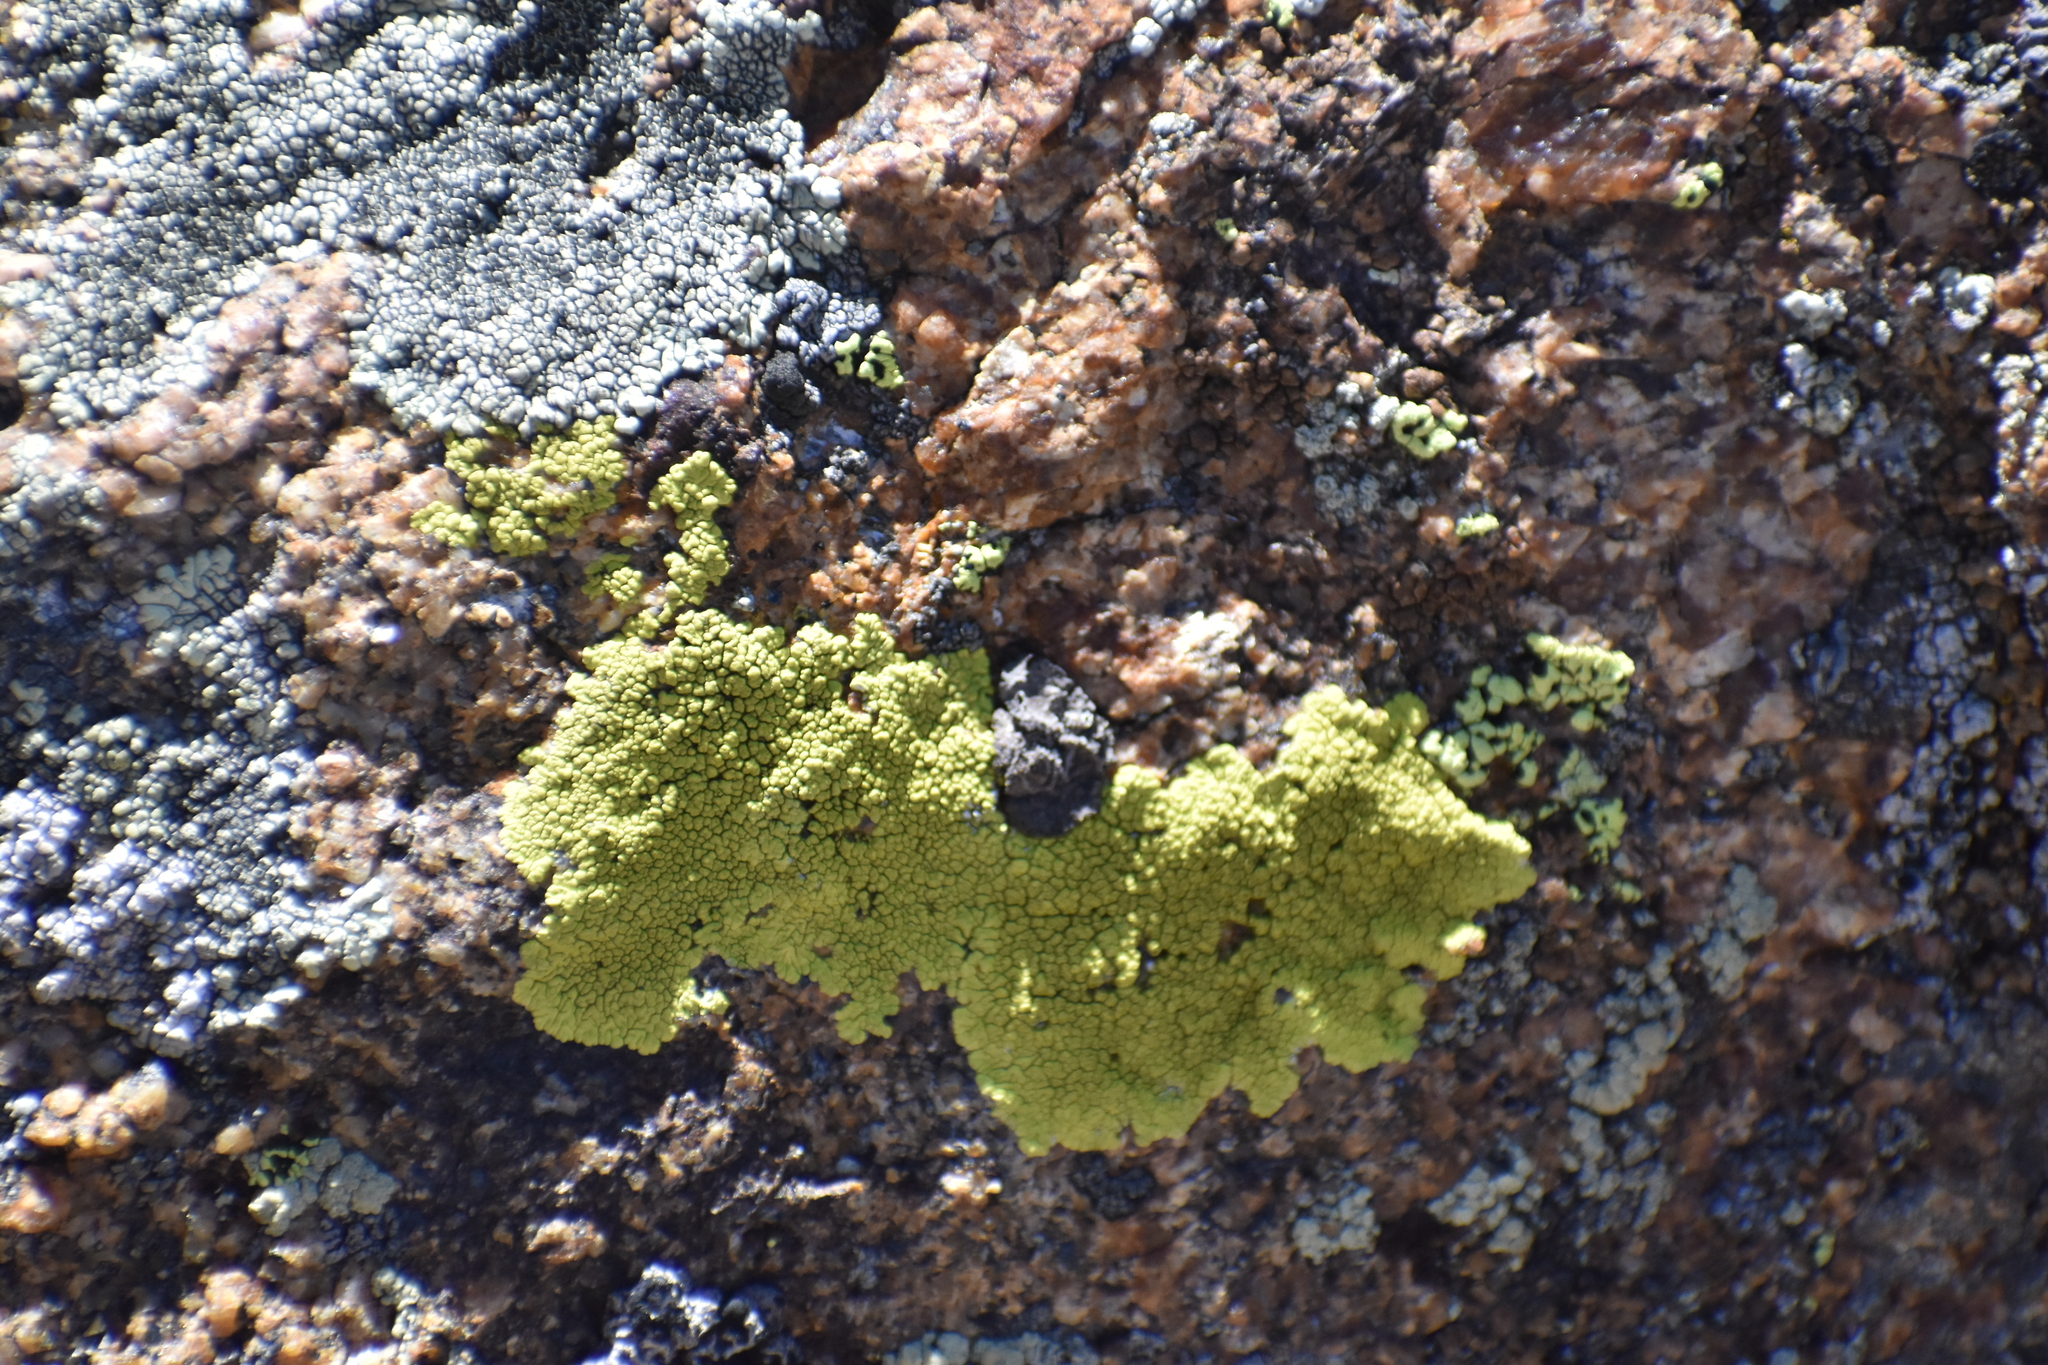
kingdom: Fungi
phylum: Ascomycota
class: Lecanoromycetes
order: Acarosporales
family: Acarosporaceae
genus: Pleopsidium
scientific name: Pleopsidium oxytonum
